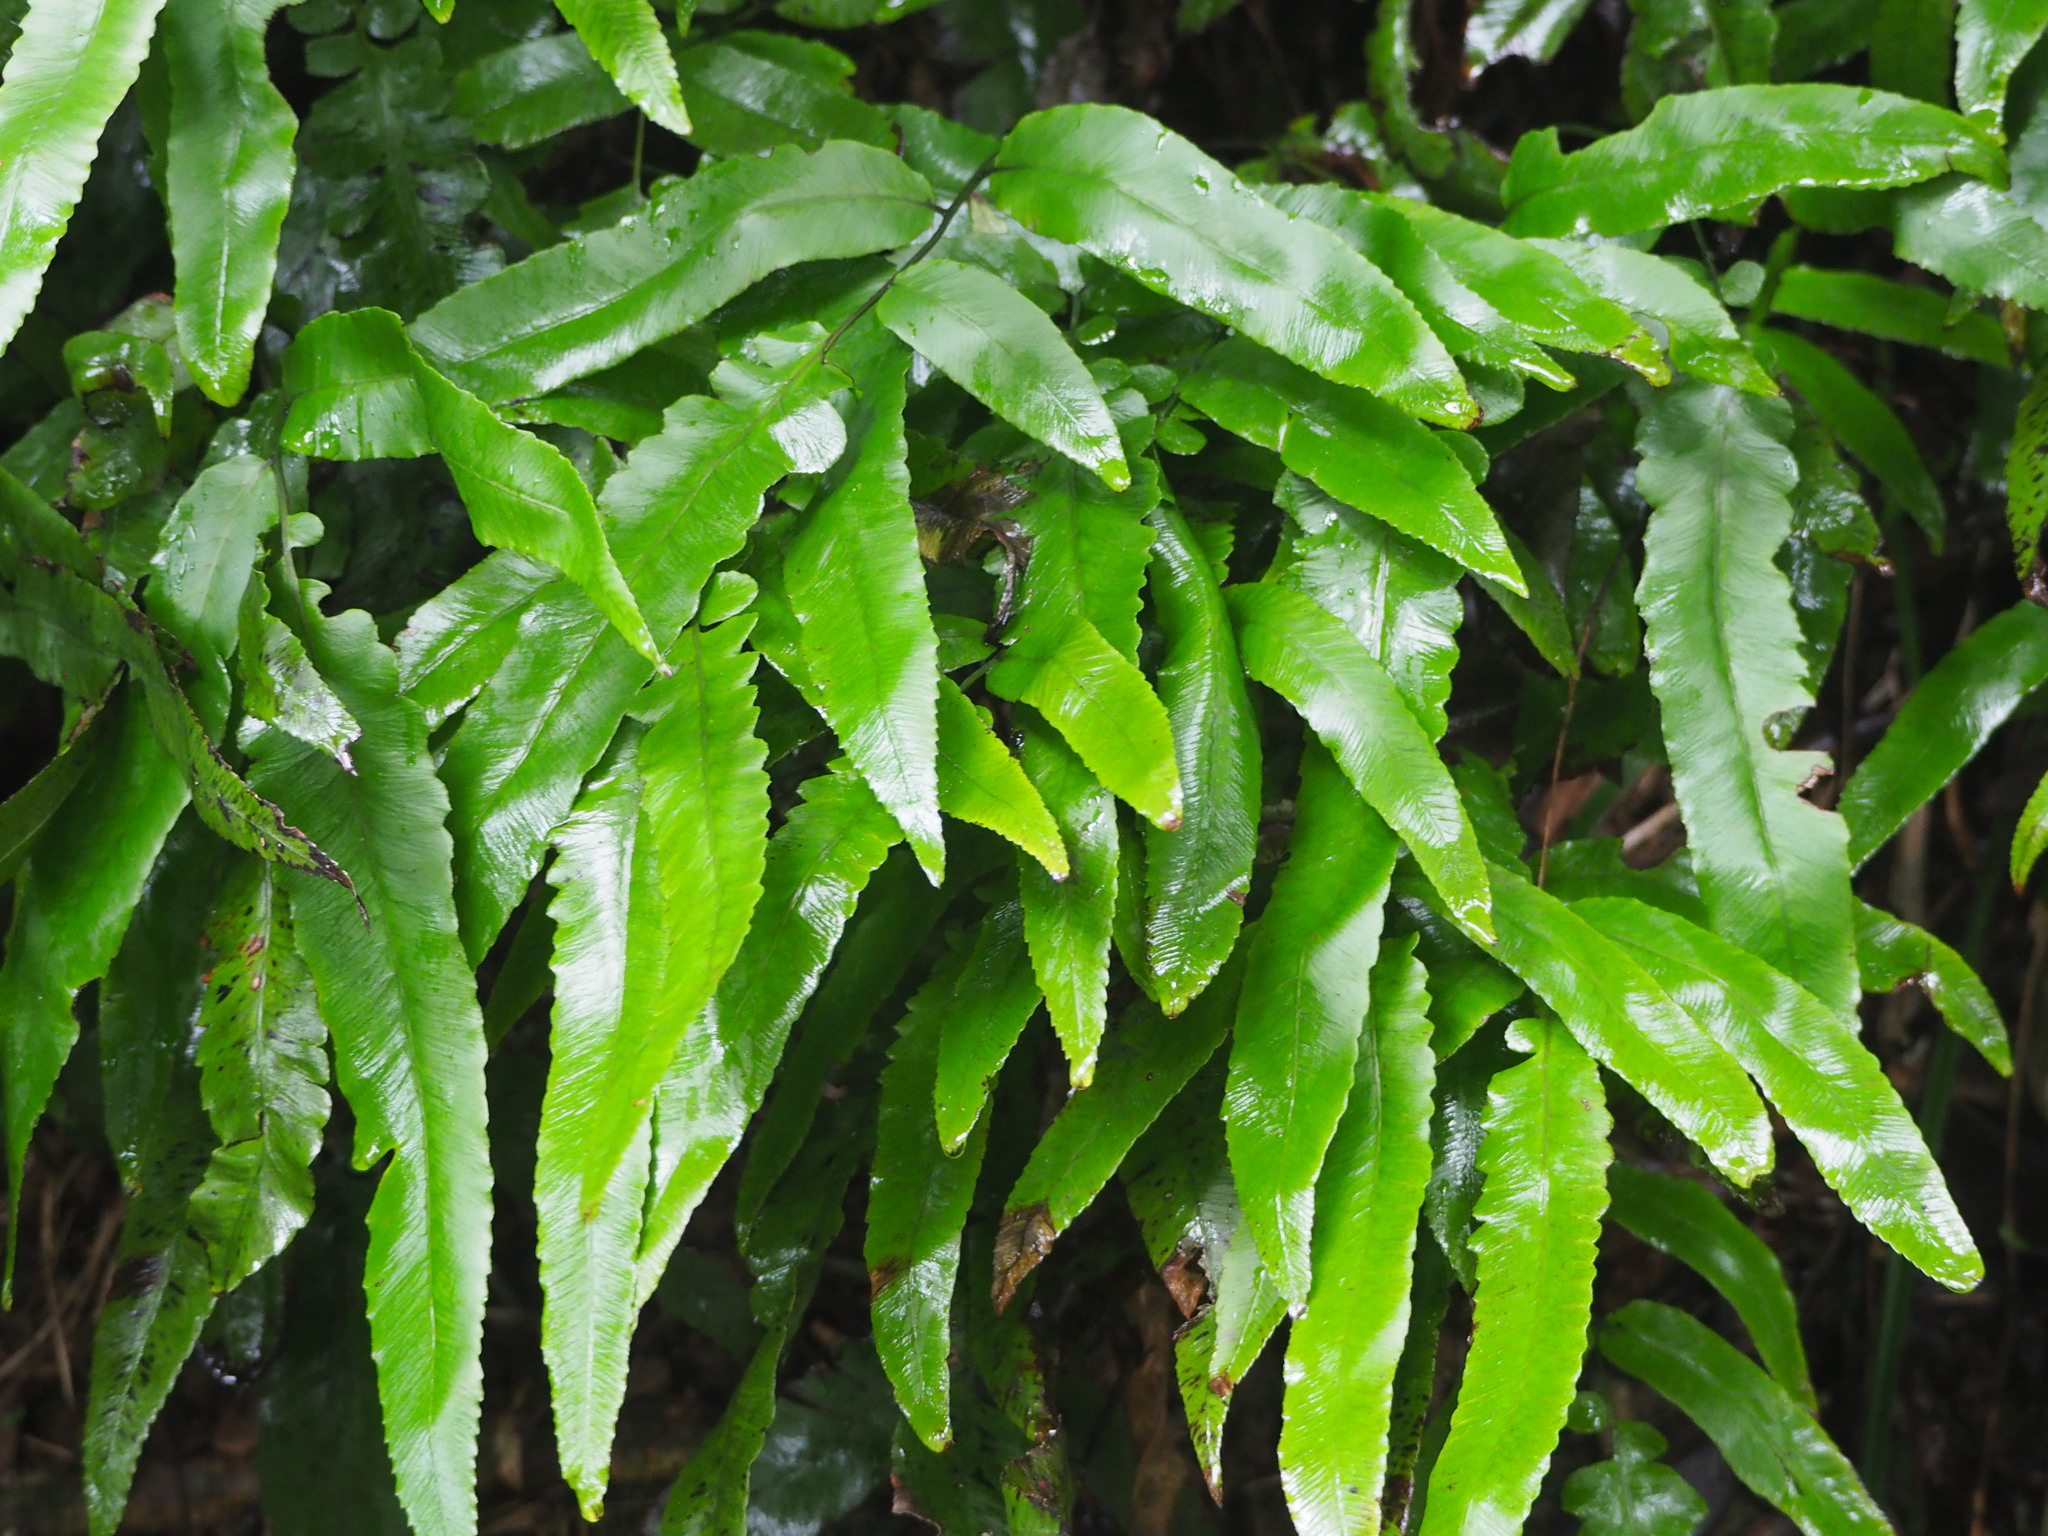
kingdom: Plantae
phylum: Tracheophyta
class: Polypodiopsida
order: Polypodiales
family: Athyriaceae
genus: Diplazium
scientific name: Diplazium lobatum
